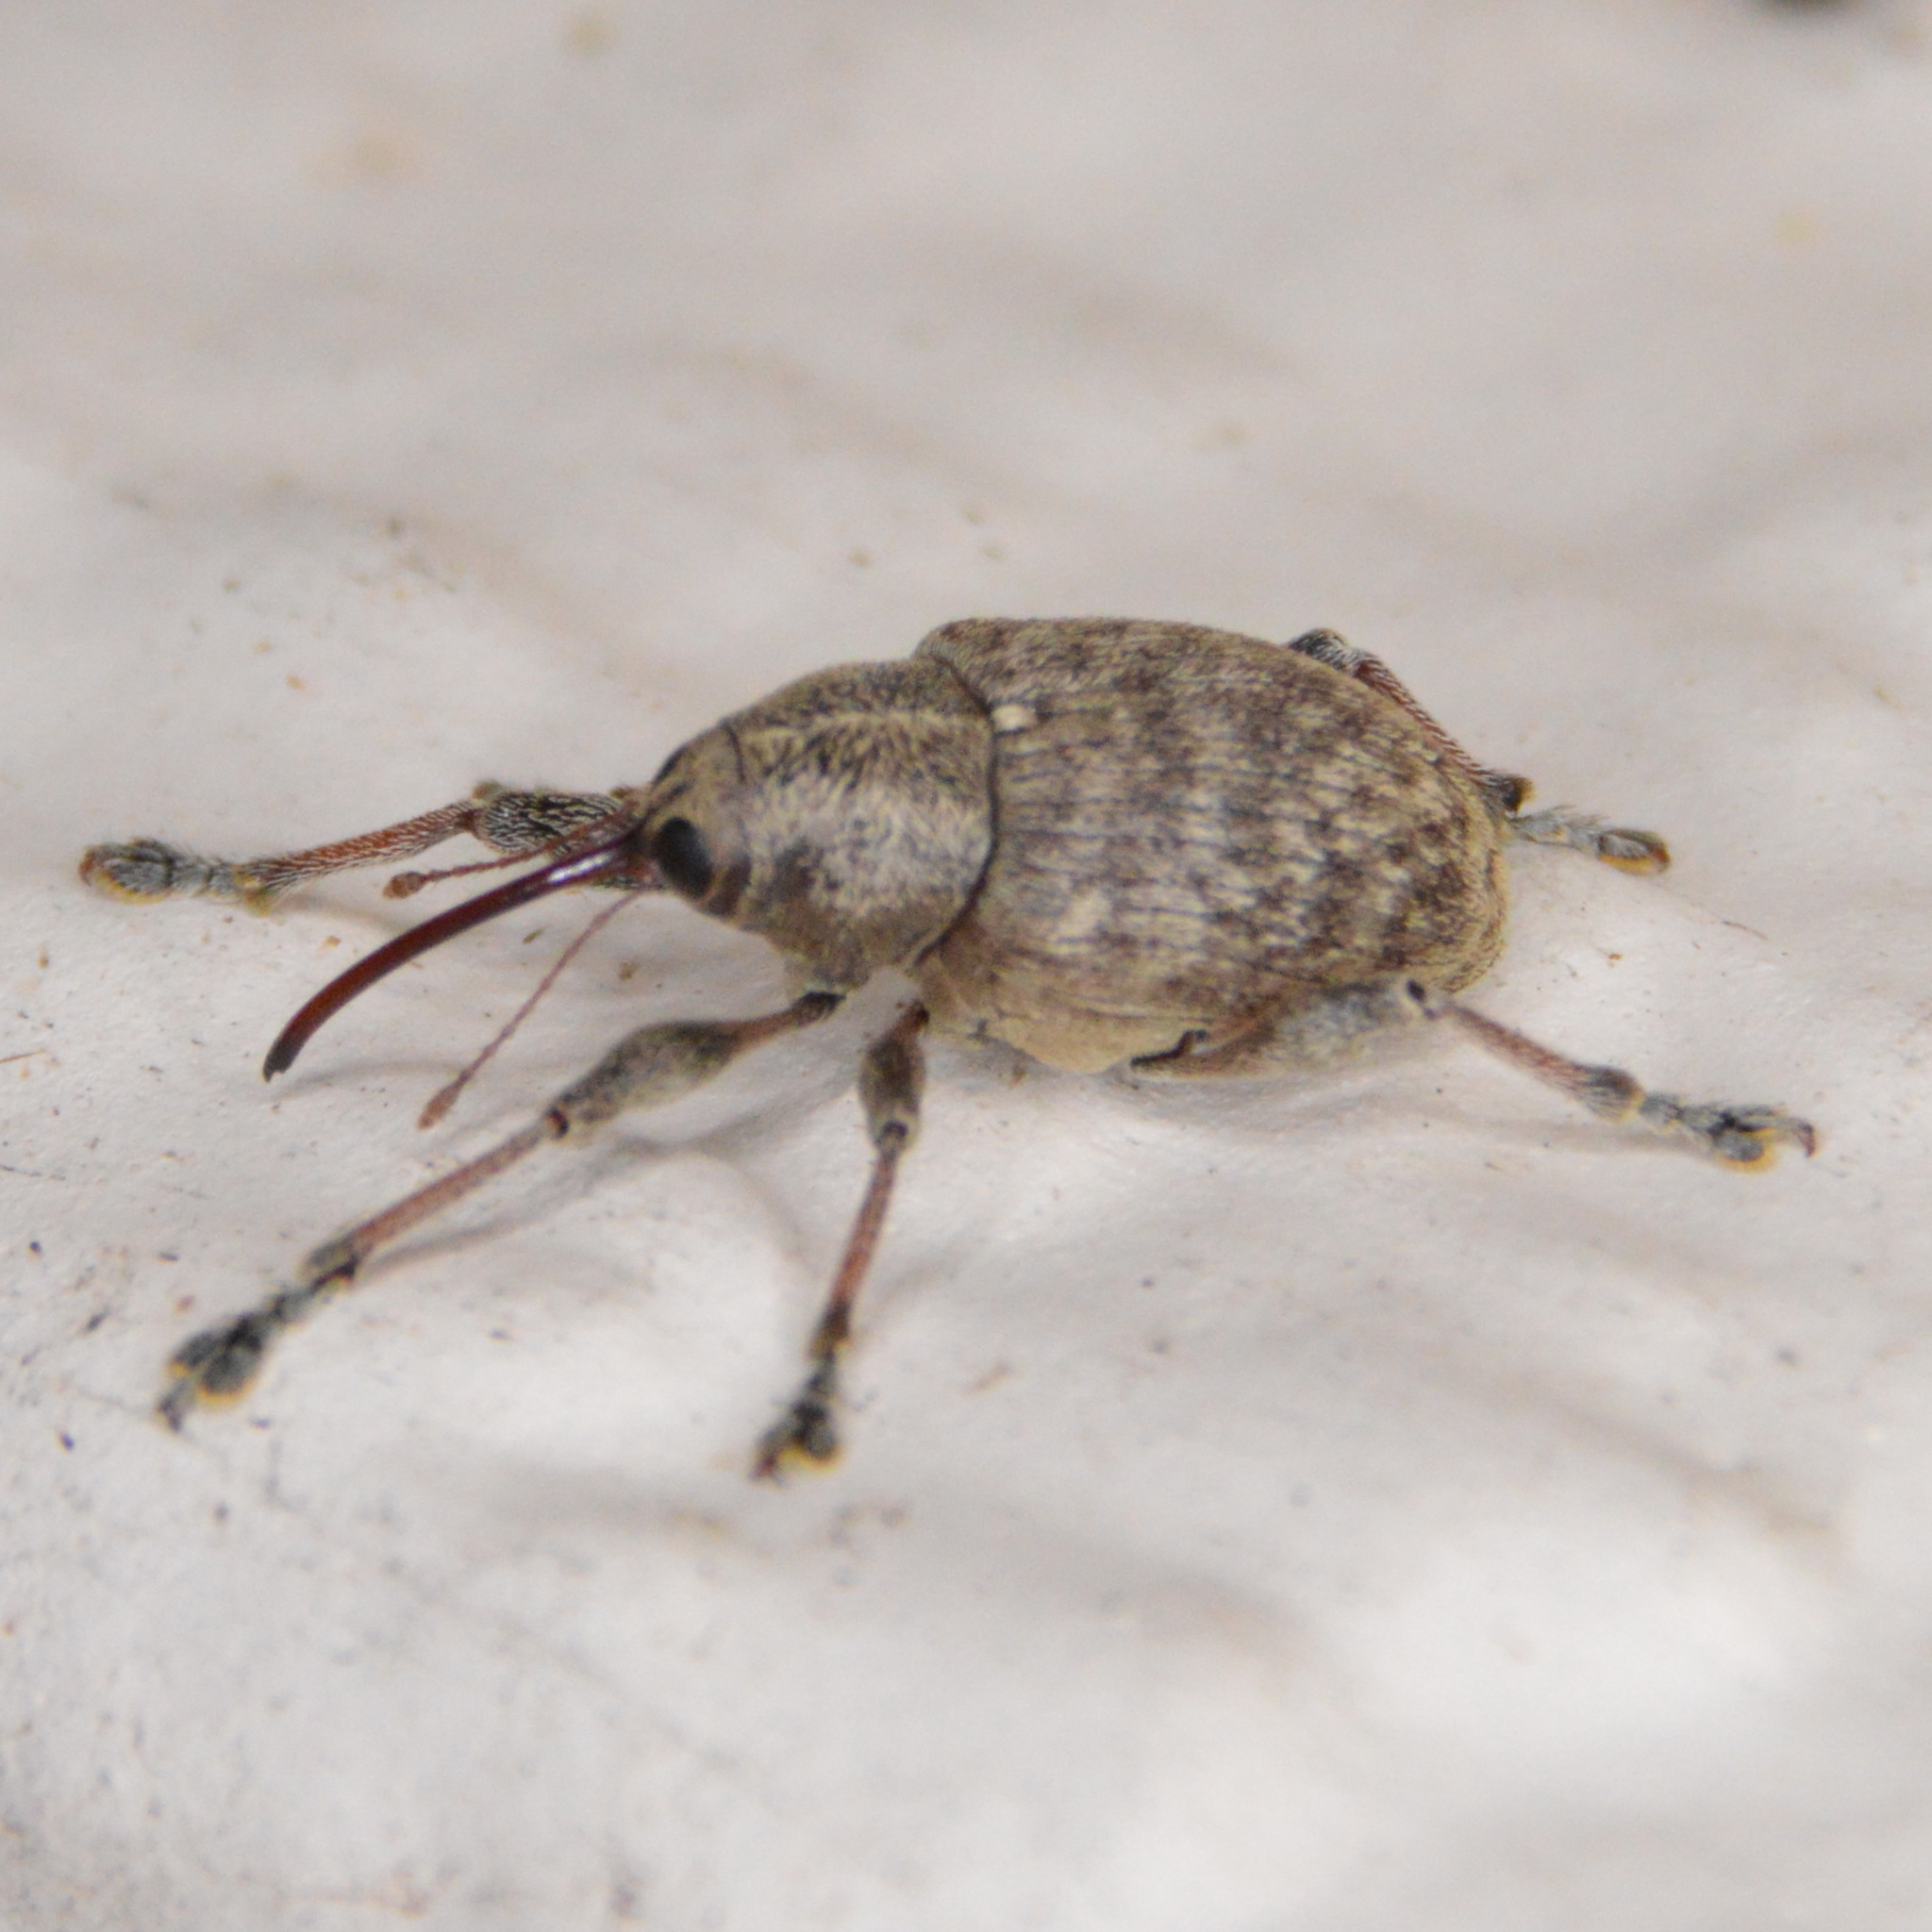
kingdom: Animalia
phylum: Arthropoda
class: Insecta
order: Coleoptera
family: Curculionidae
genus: Curculio
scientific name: Curculio
